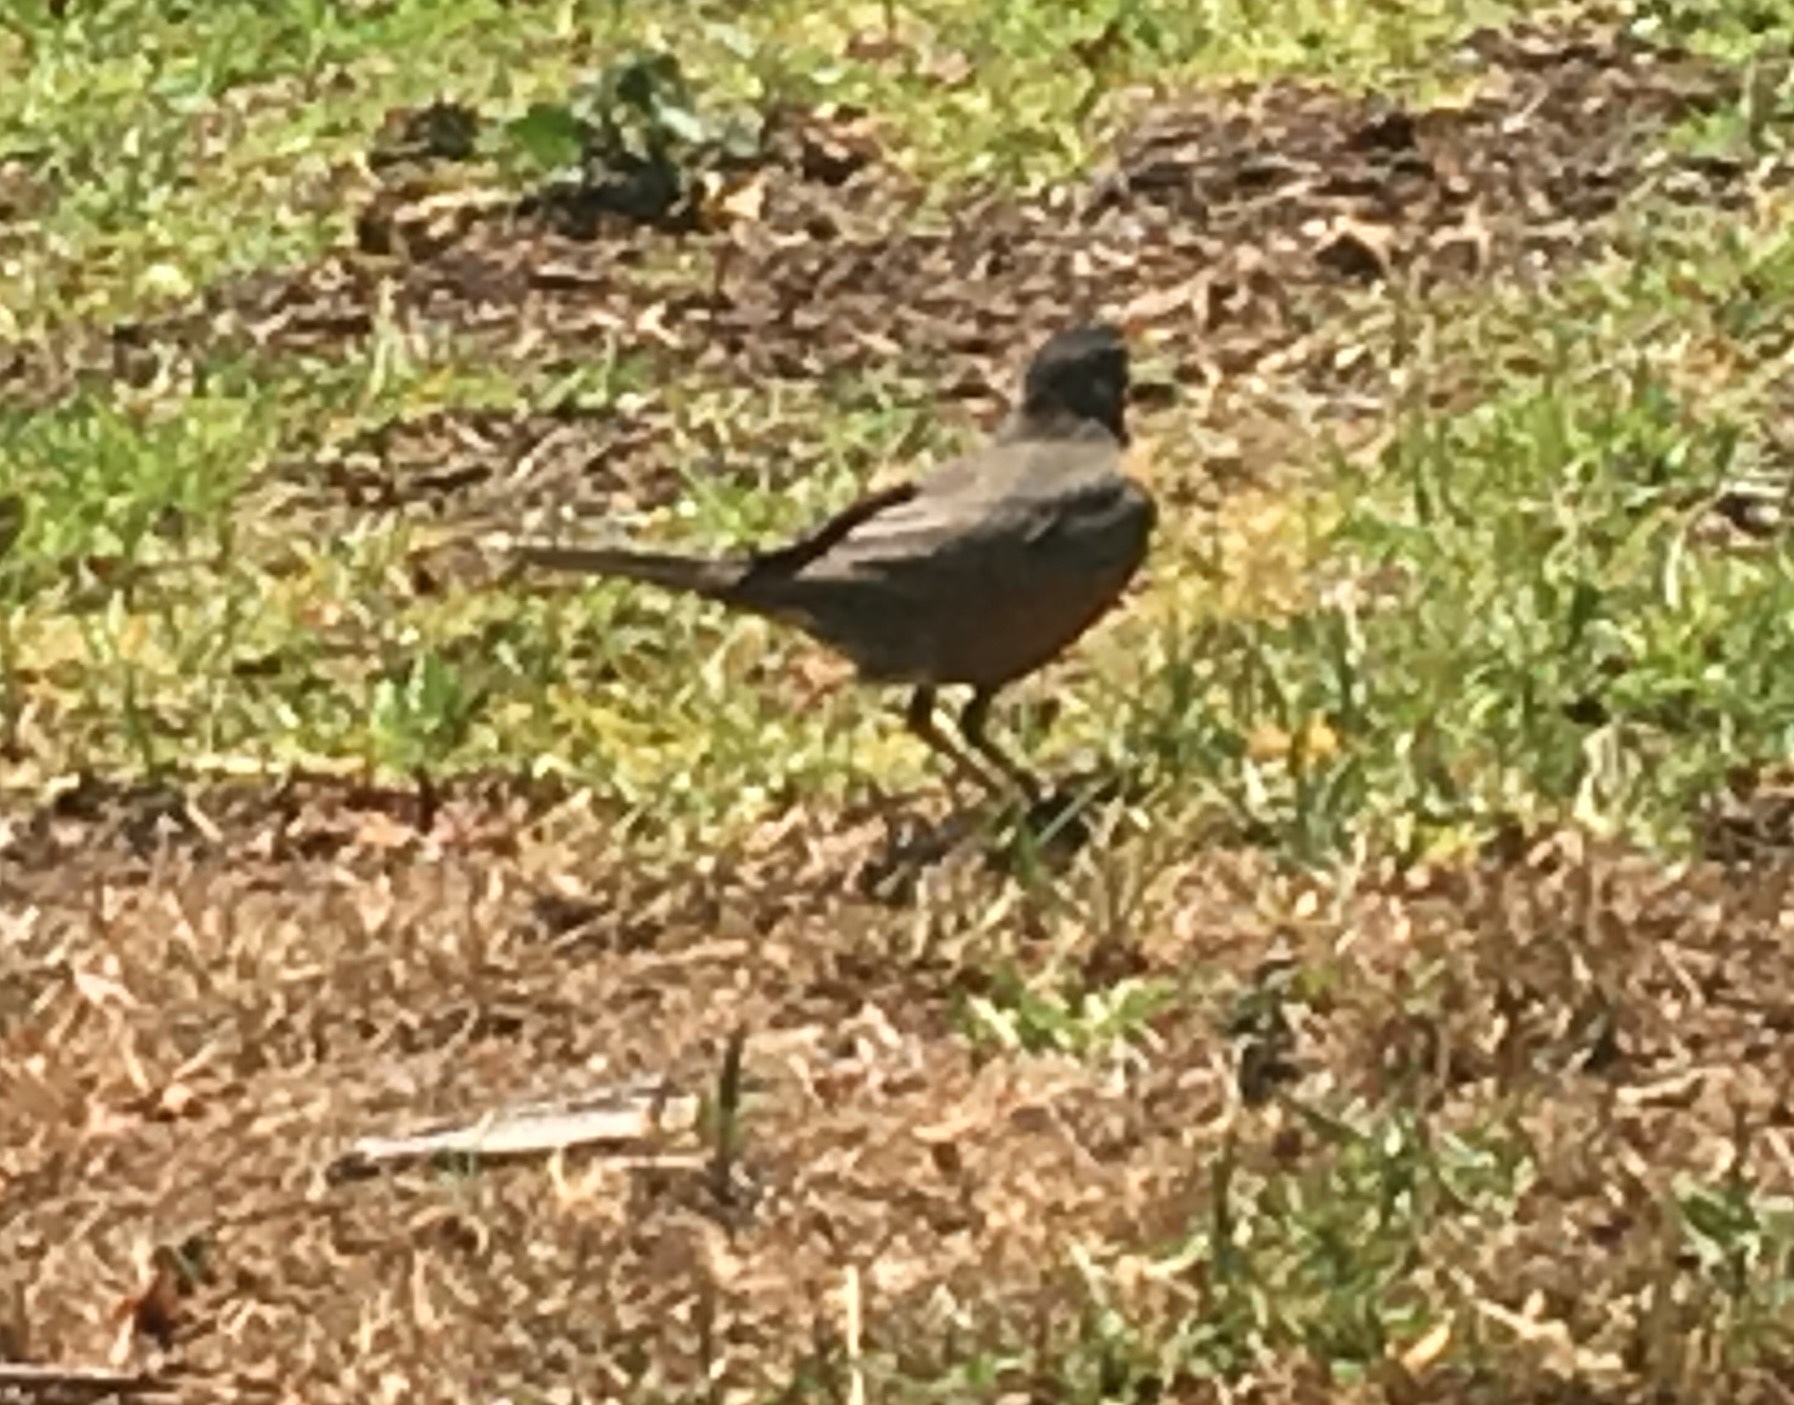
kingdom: Animalia
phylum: Chordata
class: Aves
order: Passeriformes
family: Turdidae
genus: Turdus
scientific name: Turdus migratorius
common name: American robin
